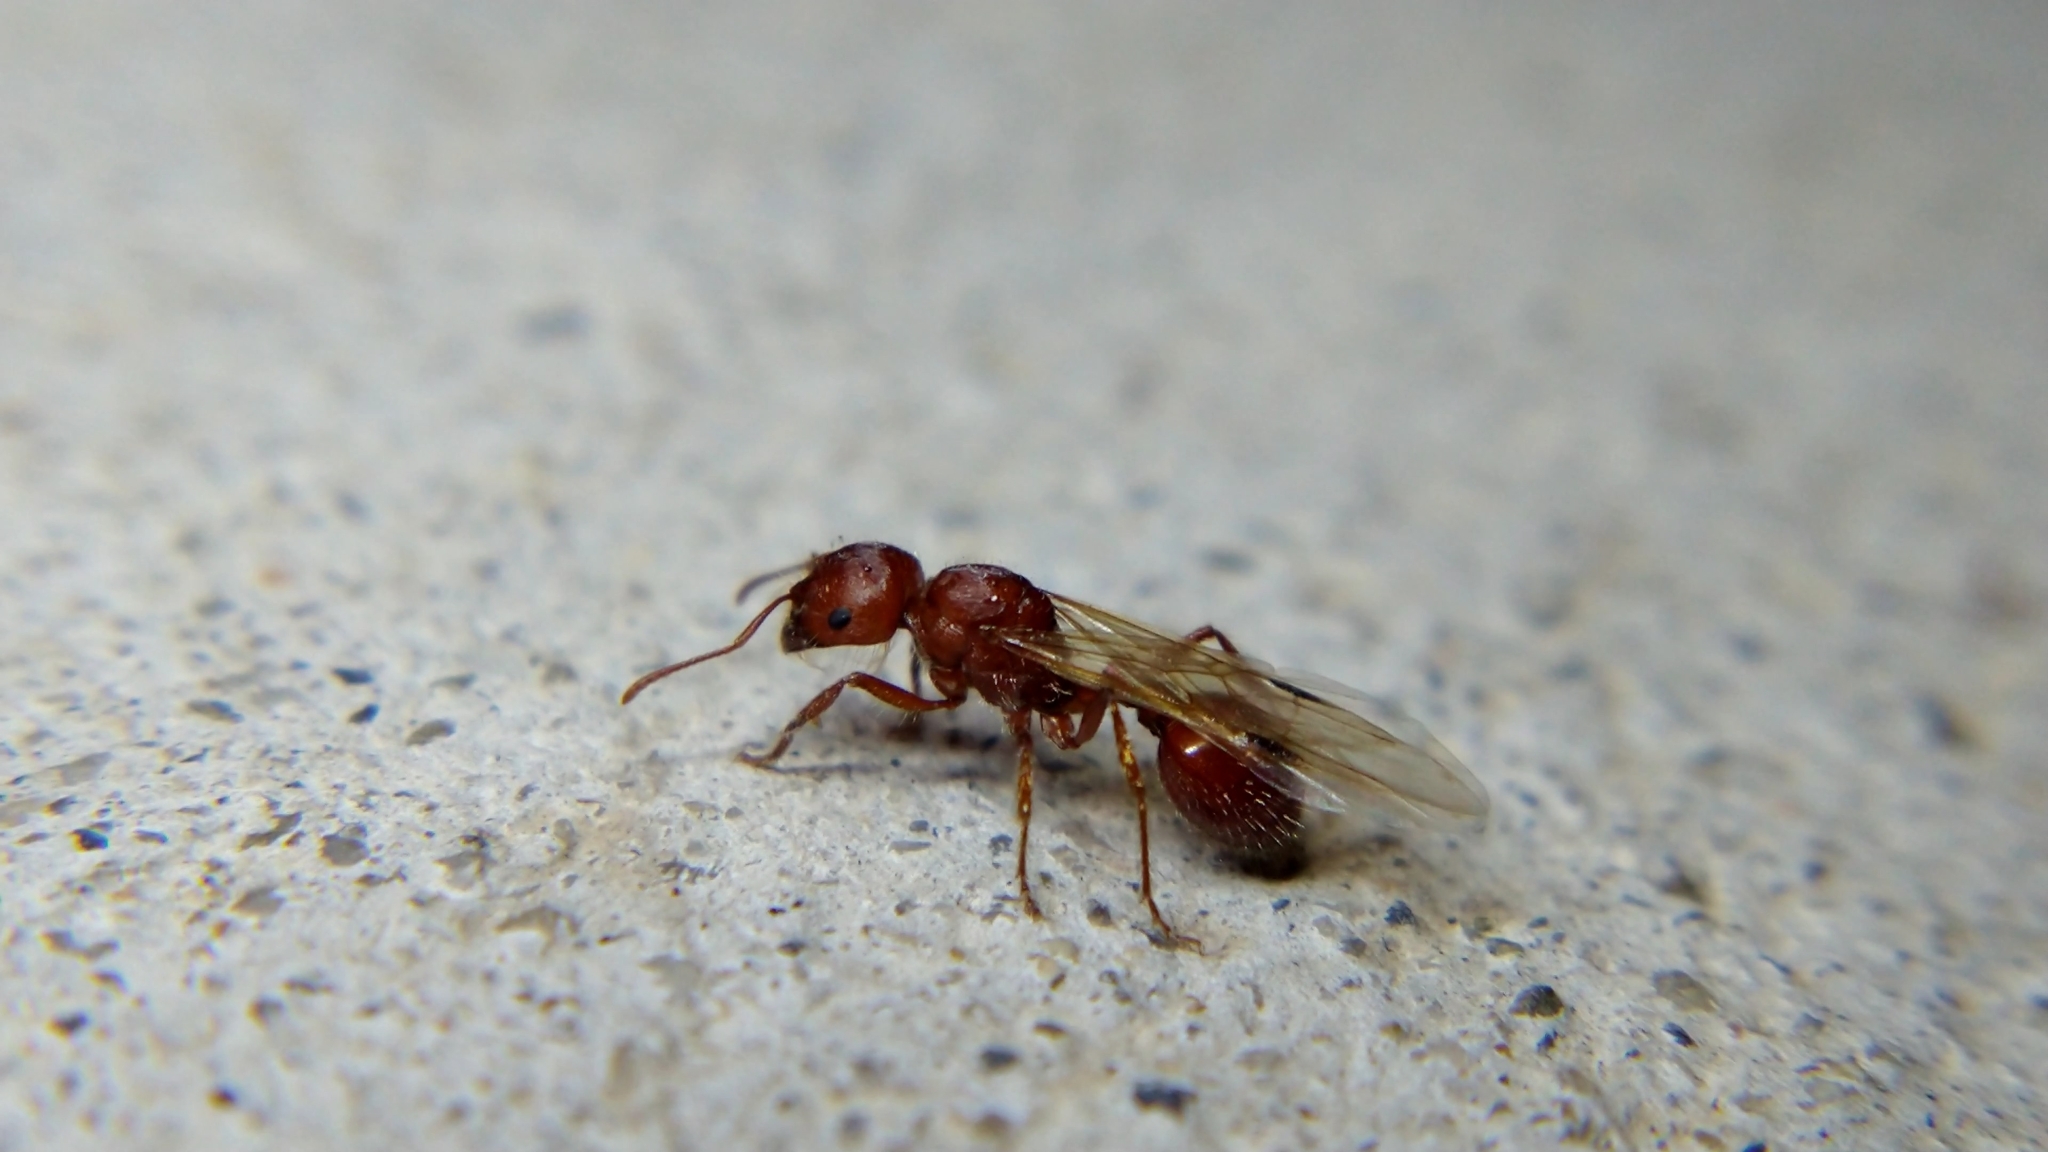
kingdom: Animalia
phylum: Arthropoda
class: Insecta
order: Hymenoptera
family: Formicidae
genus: Pogonomyrmex
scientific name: Pogonomyrmex
